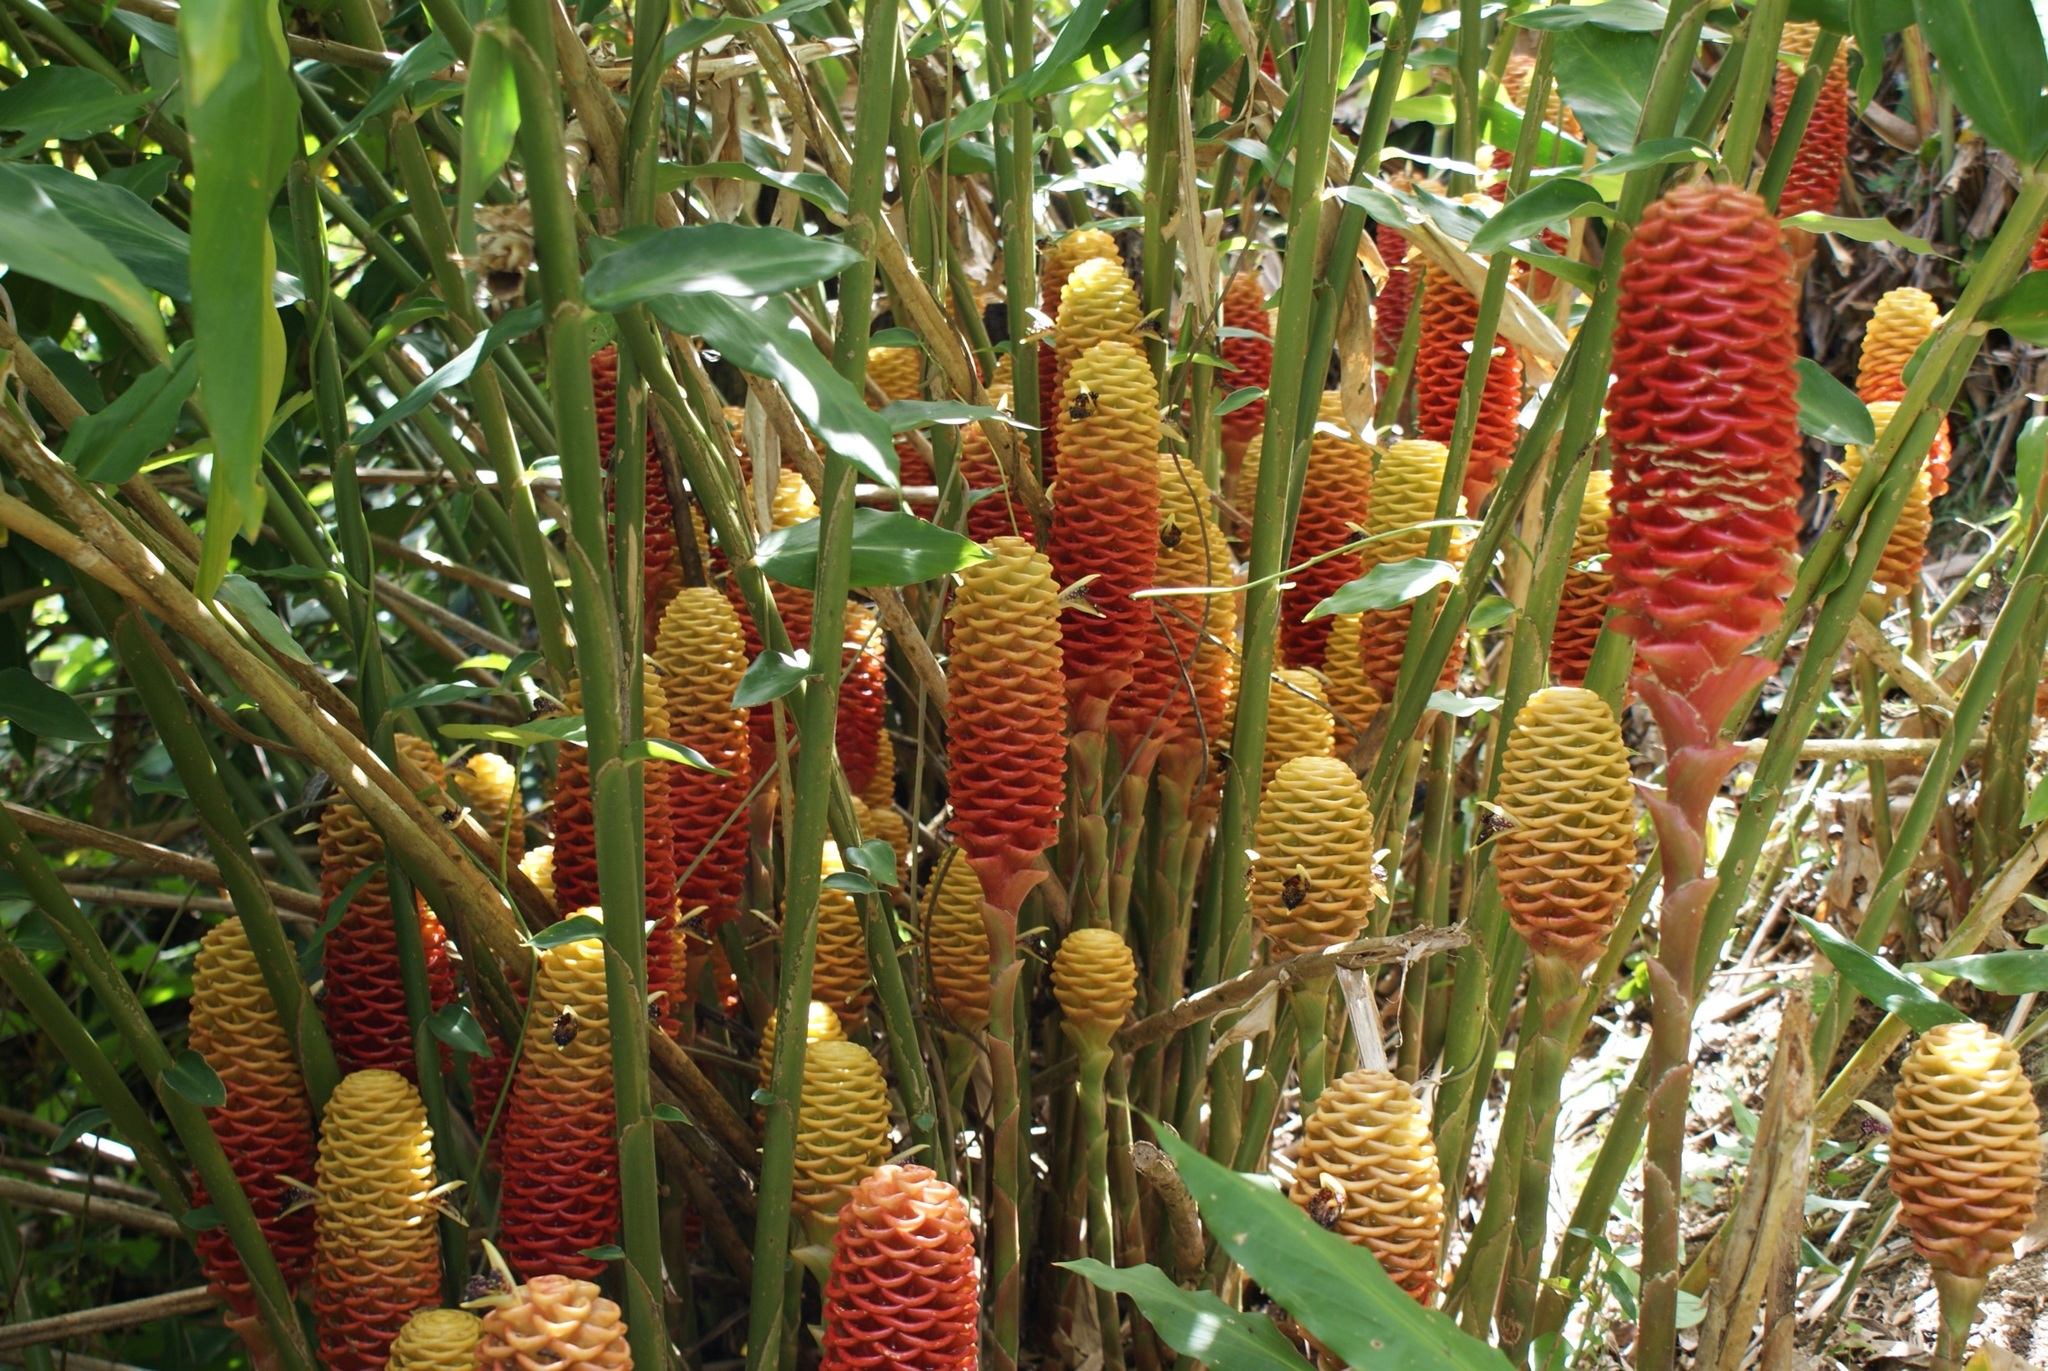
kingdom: Plantae
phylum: Tracheophyta
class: Liliopsida
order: Zingiberales
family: Zingiberaceae
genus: Zingiber
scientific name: Zingiber spectabile
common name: Beehive ginger
